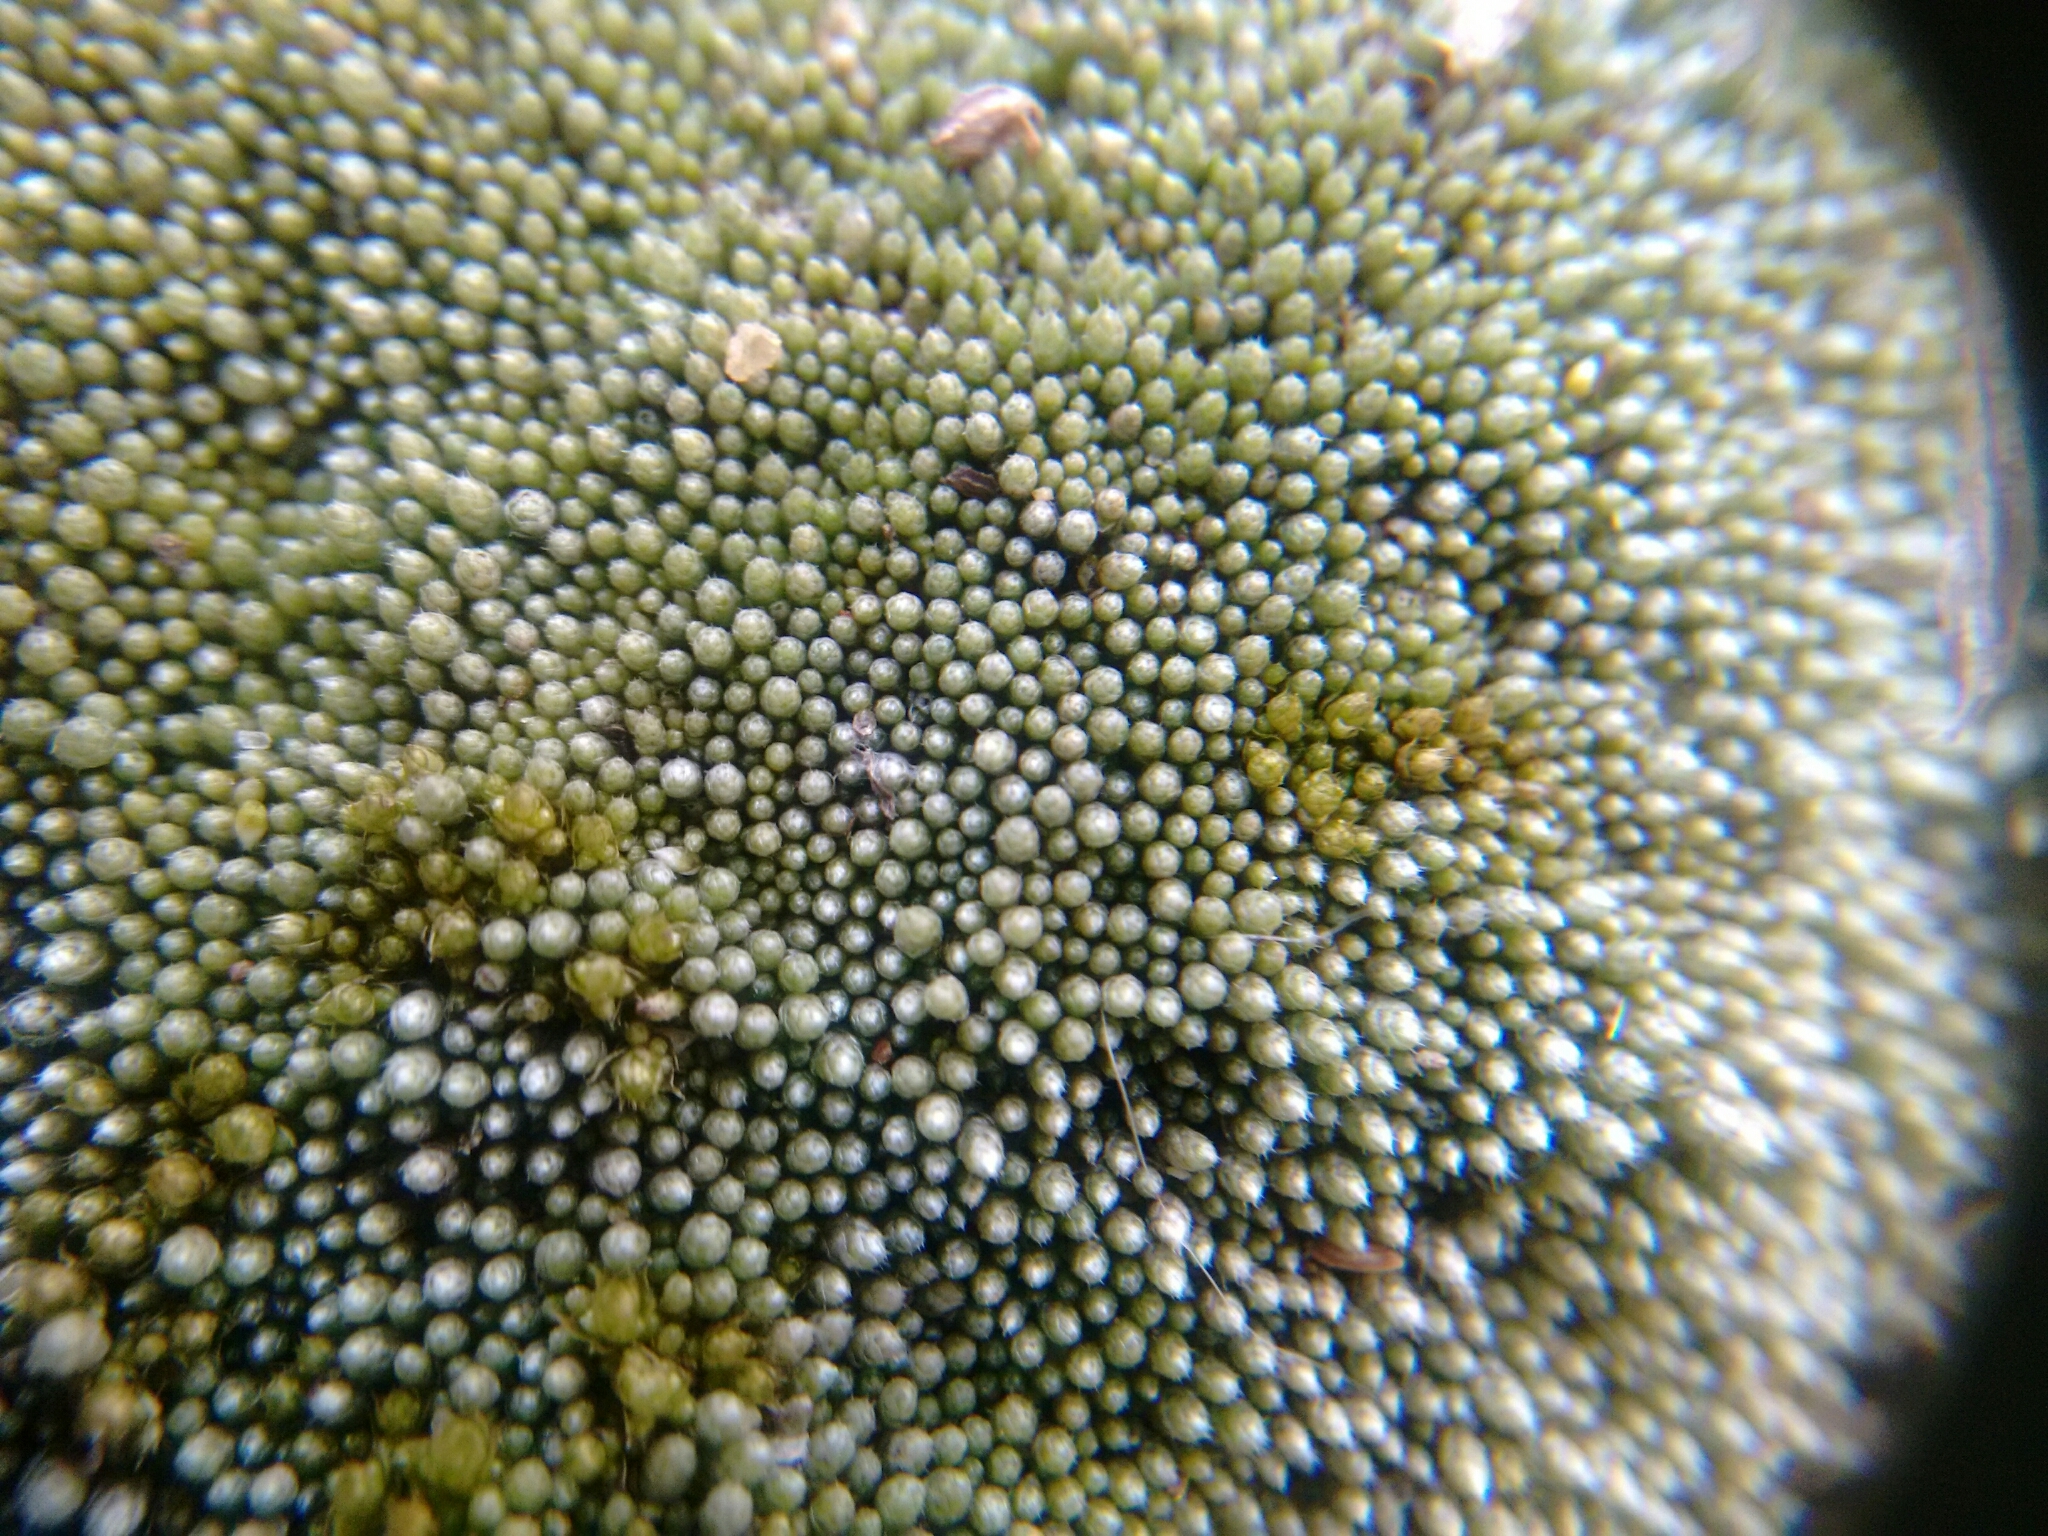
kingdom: Plantae
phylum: Bryophyta
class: Bryopsida
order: Bryales
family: Bryaceae
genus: Bryum
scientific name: Bryum argenteum
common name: Silver-moss
